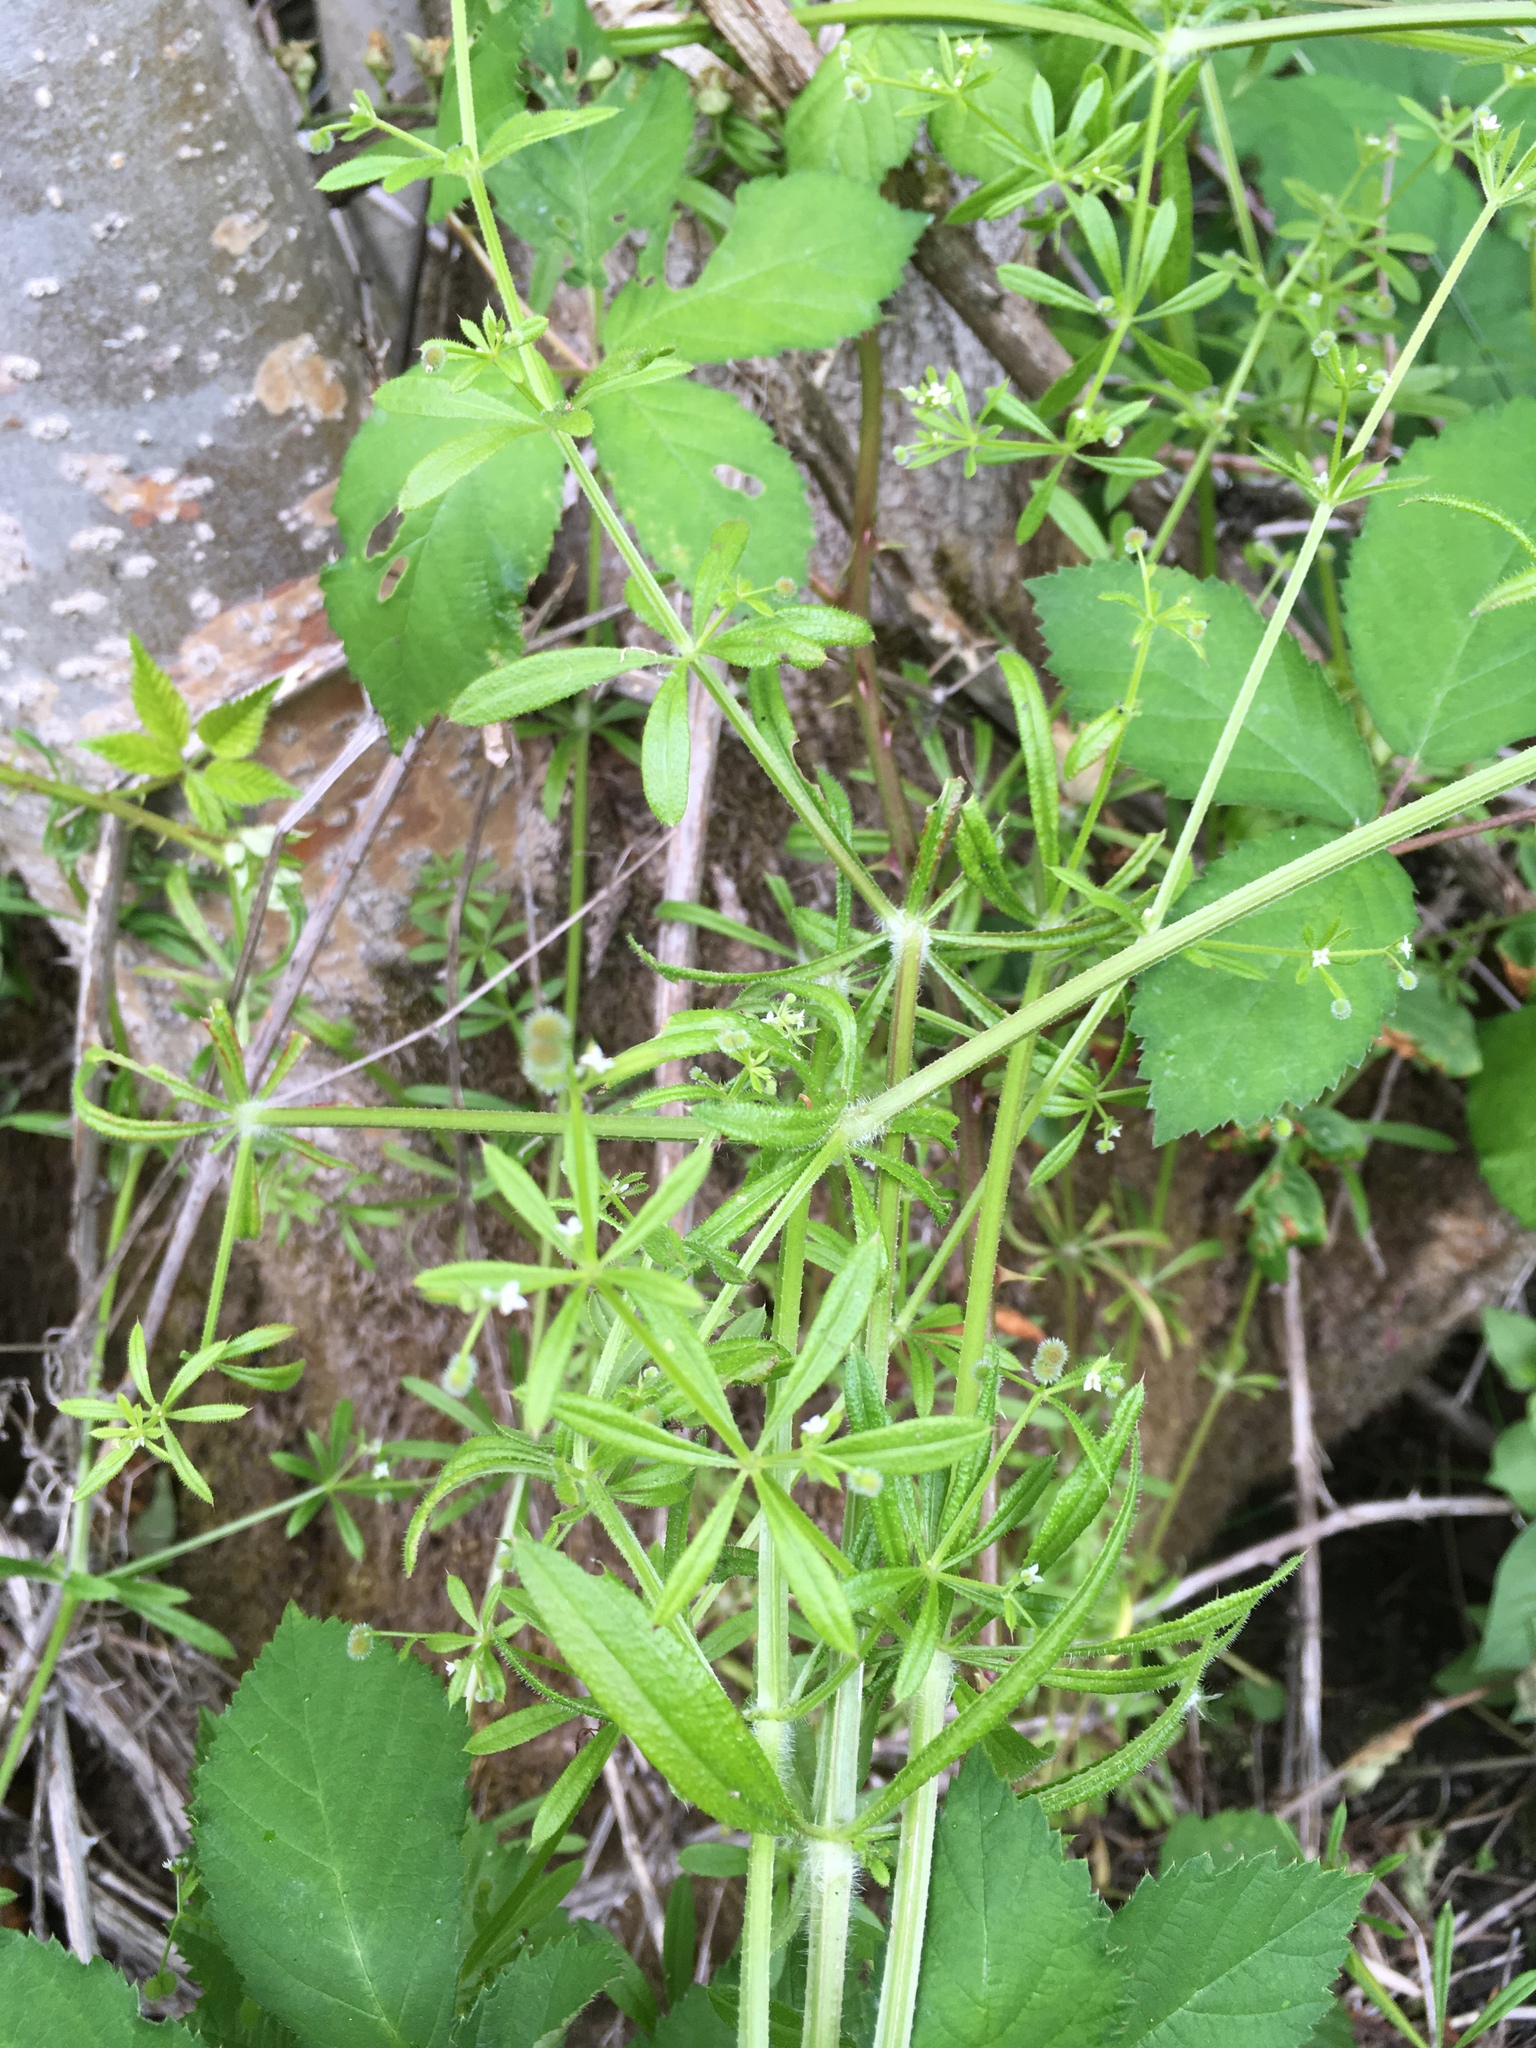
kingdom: Plantae
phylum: Tracheophyta
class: Magnoliopsida
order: Gentianales
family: Rubiaceae
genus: Galium
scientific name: Galium aparine
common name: Cleavers
